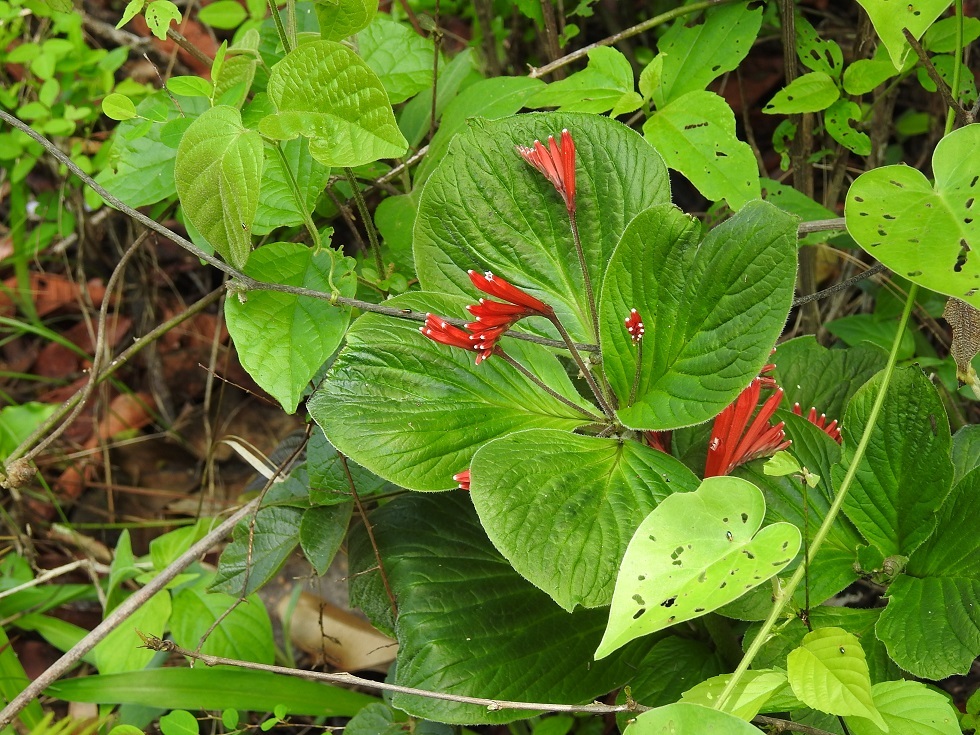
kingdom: Plantae
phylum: Tracheophyta
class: Magnoliopsida
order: Gentianales
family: Loganiaceae
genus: Spigelia
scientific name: Spigelia splendens
